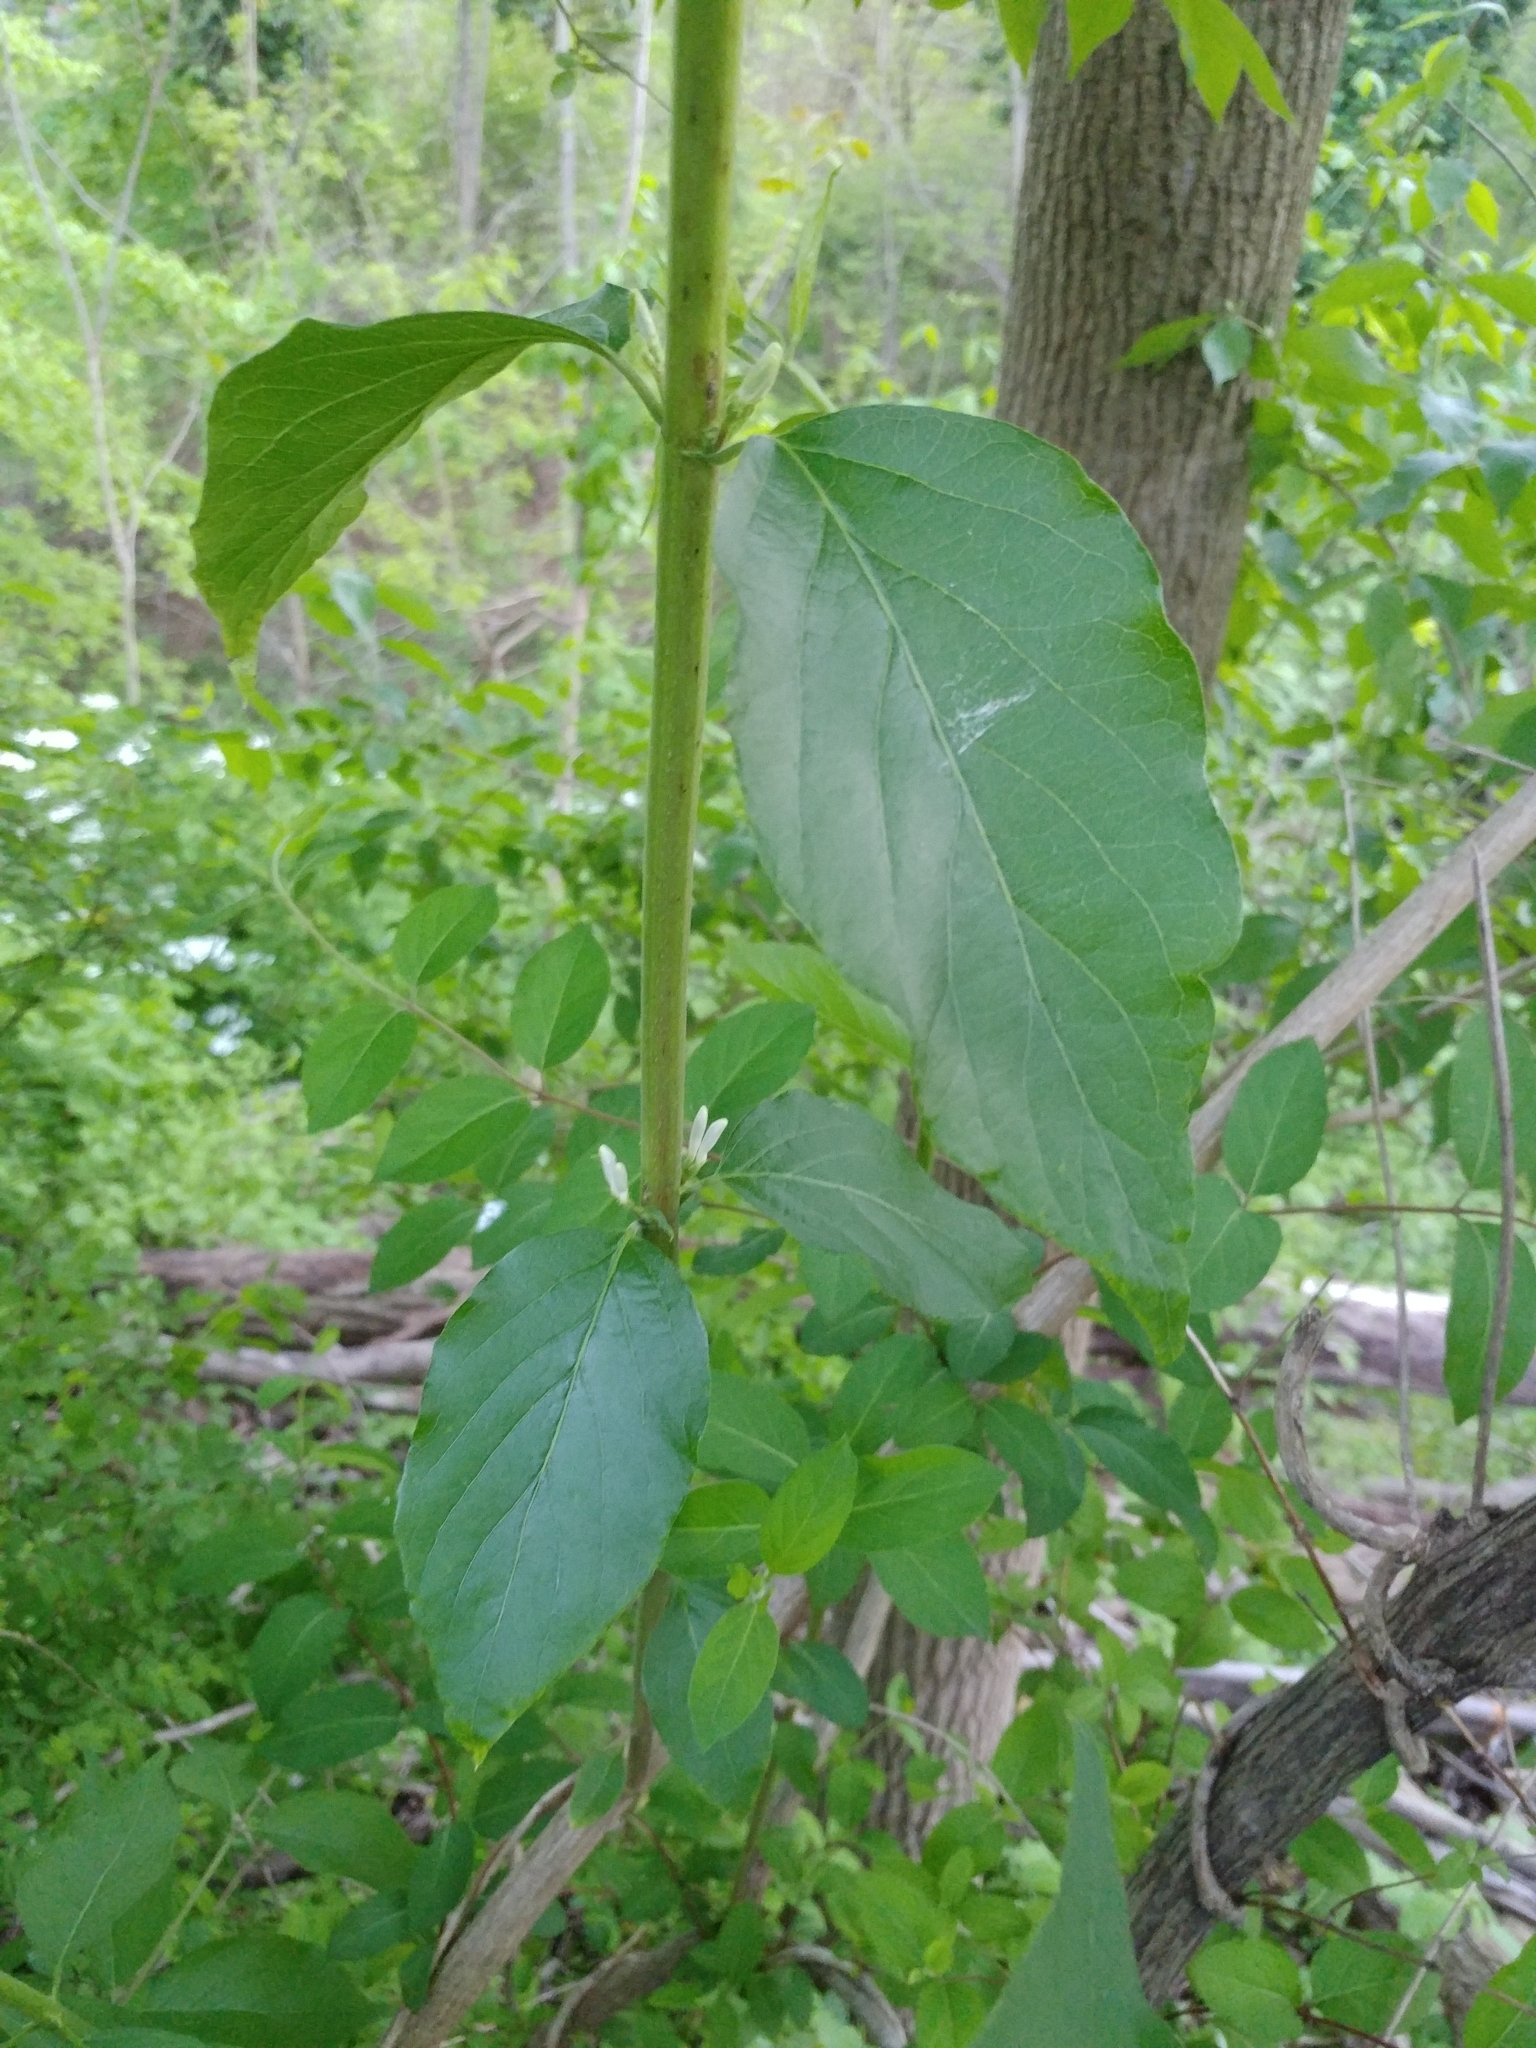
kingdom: Plantae
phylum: Tracheophyta
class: Magnoliopsida
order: Dipsacales
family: Caprifoliaceae
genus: Lonicera
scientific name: Lonicera maackii
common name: Amur honeysuckle
